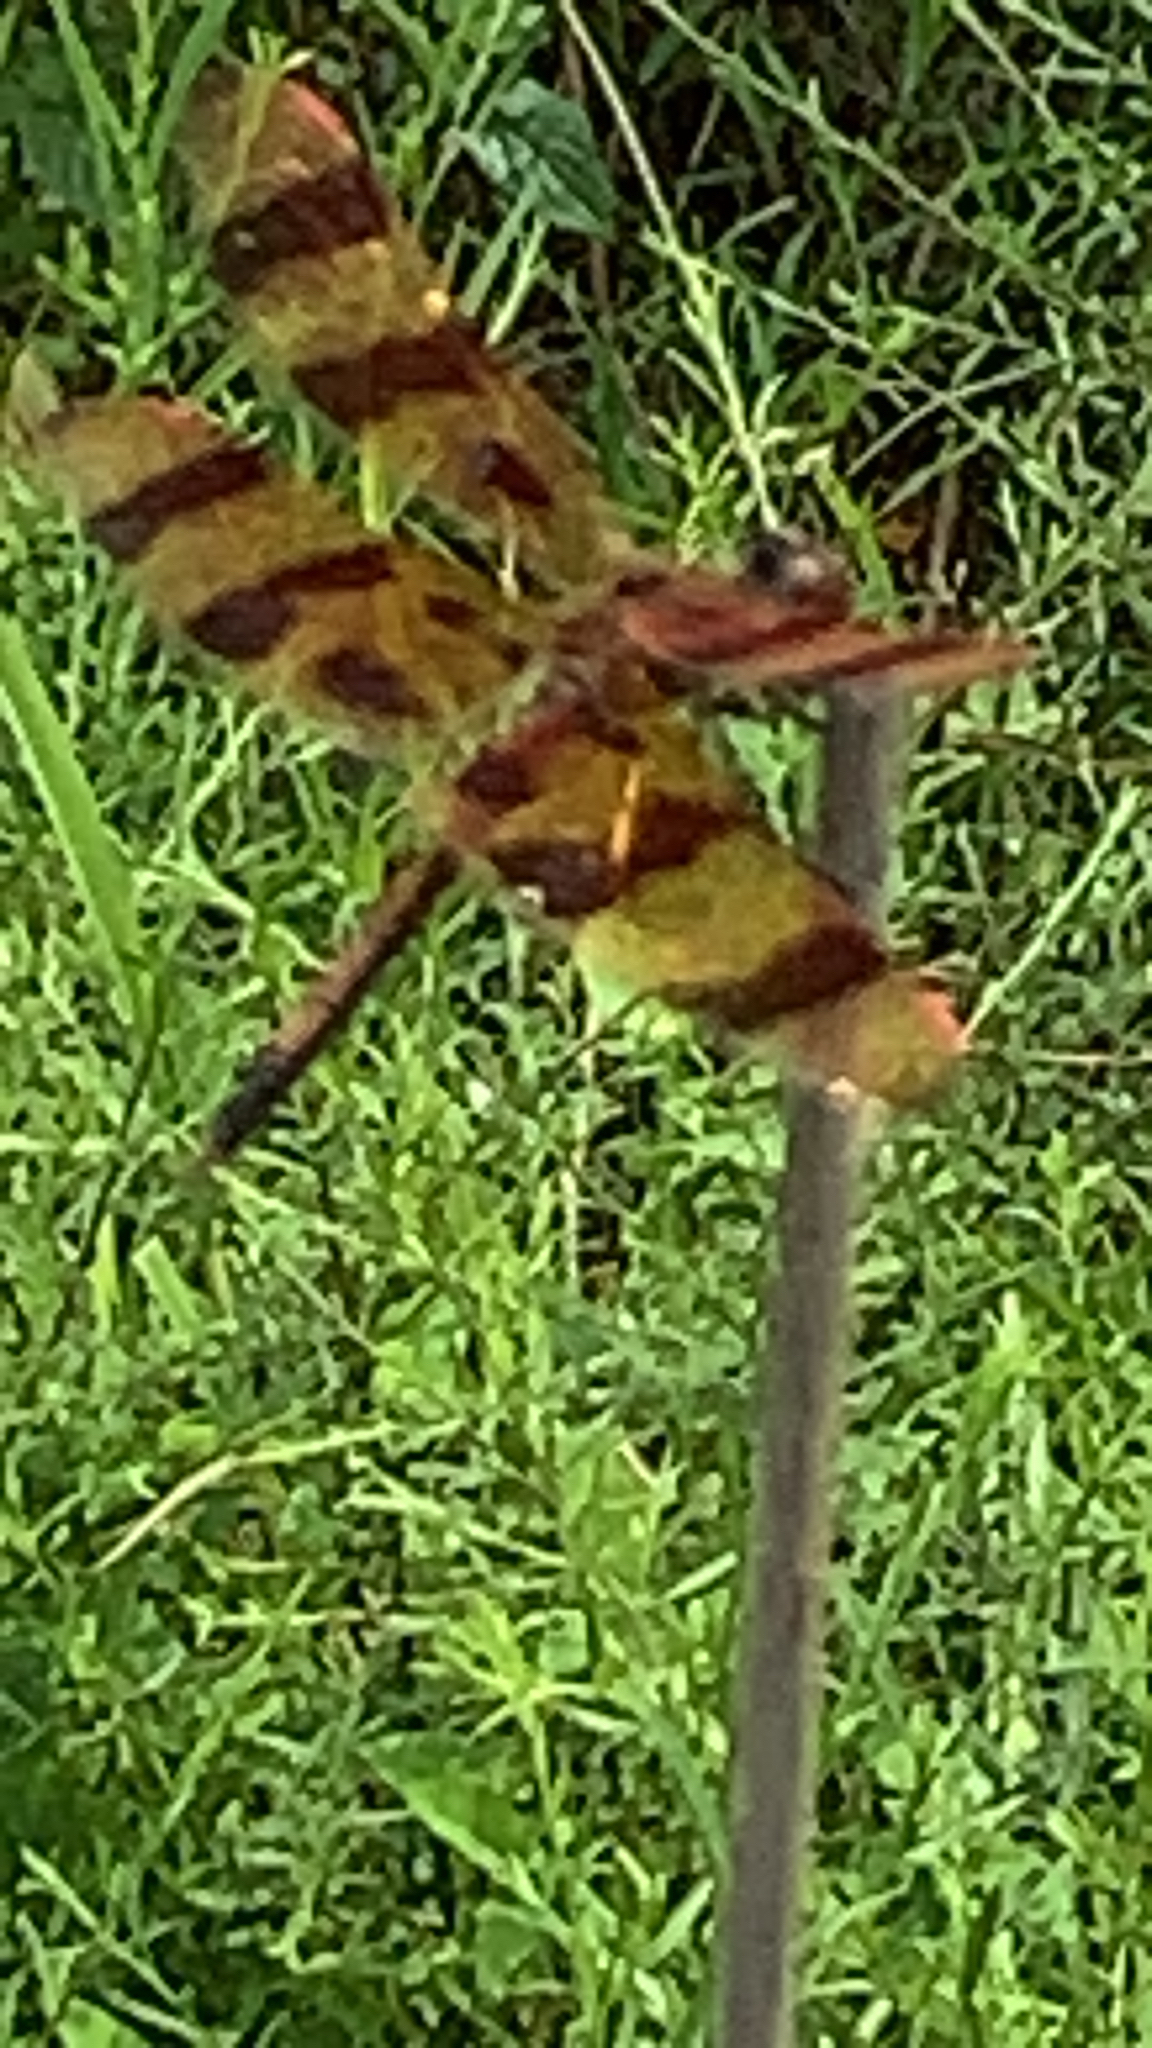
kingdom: Animalia
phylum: Arthropoda
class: Insecta
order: Odonata
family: Libellulidae
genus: Celithemis
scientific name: Celithemis eponina
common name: Halloween pennant
